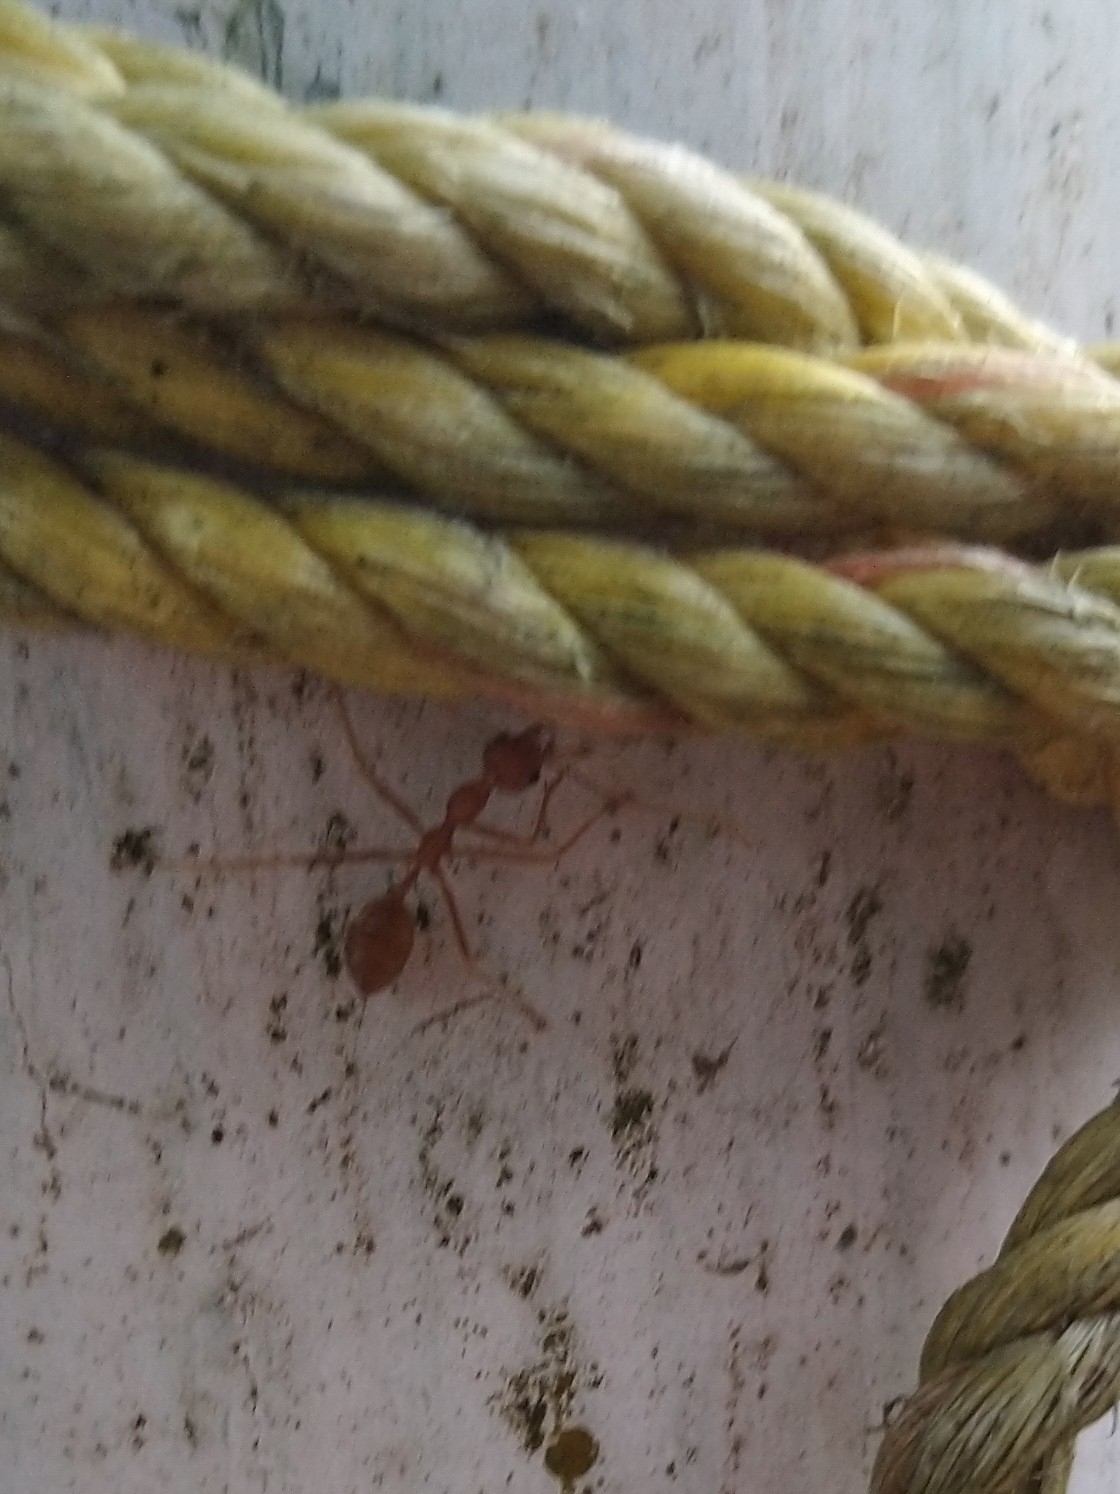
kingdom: Animalia
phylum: Arthropoda
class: Insecta
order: Hymenoptera
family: Formicidae
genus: Oecophylla
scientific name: Oecophylla smaragdina
